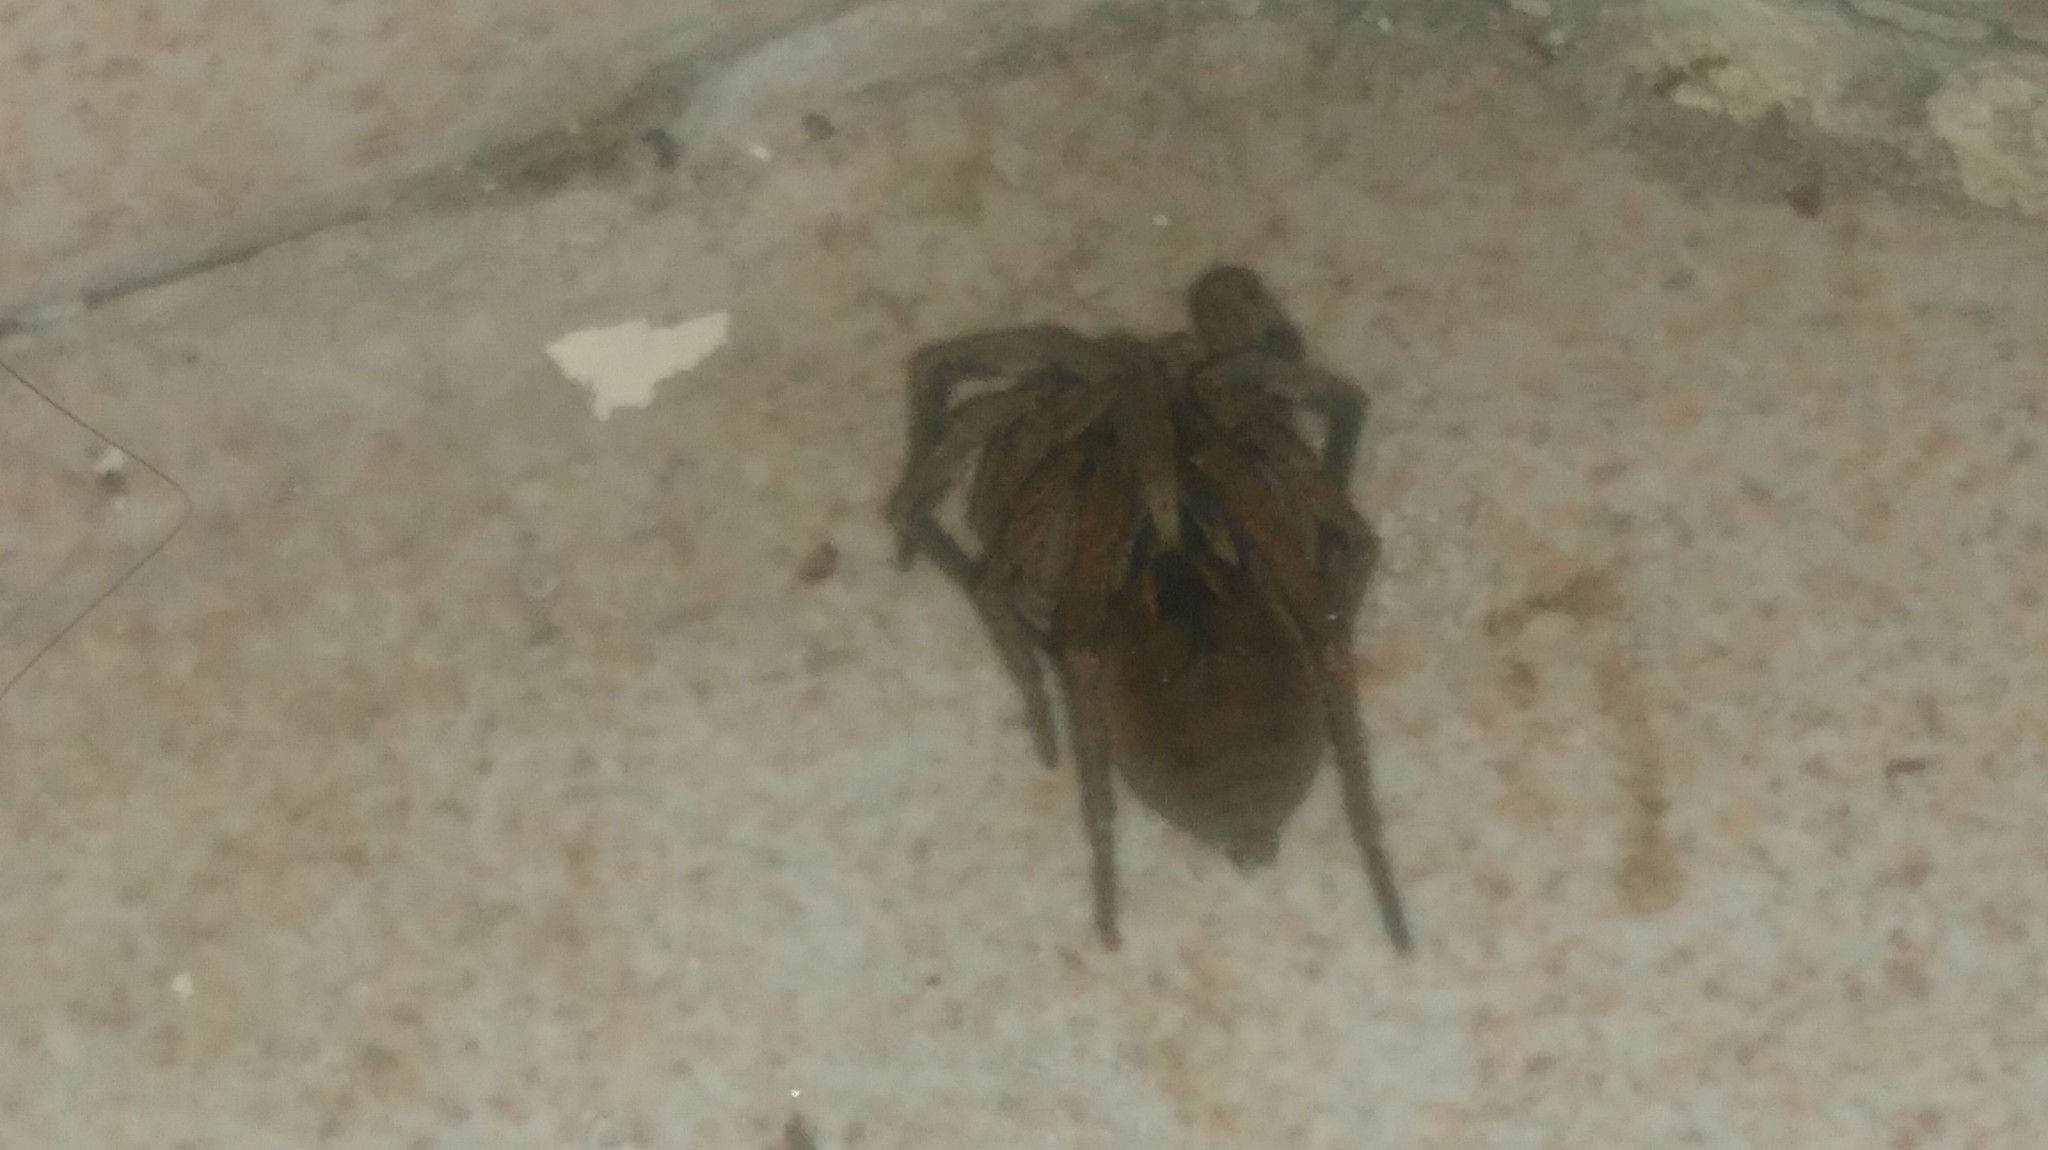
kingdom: Animalia
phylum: Arthropoda
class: Arachnida
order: Araneae
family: Lycosidae
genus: Lycosa
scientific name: Lycosa erythrognatha
